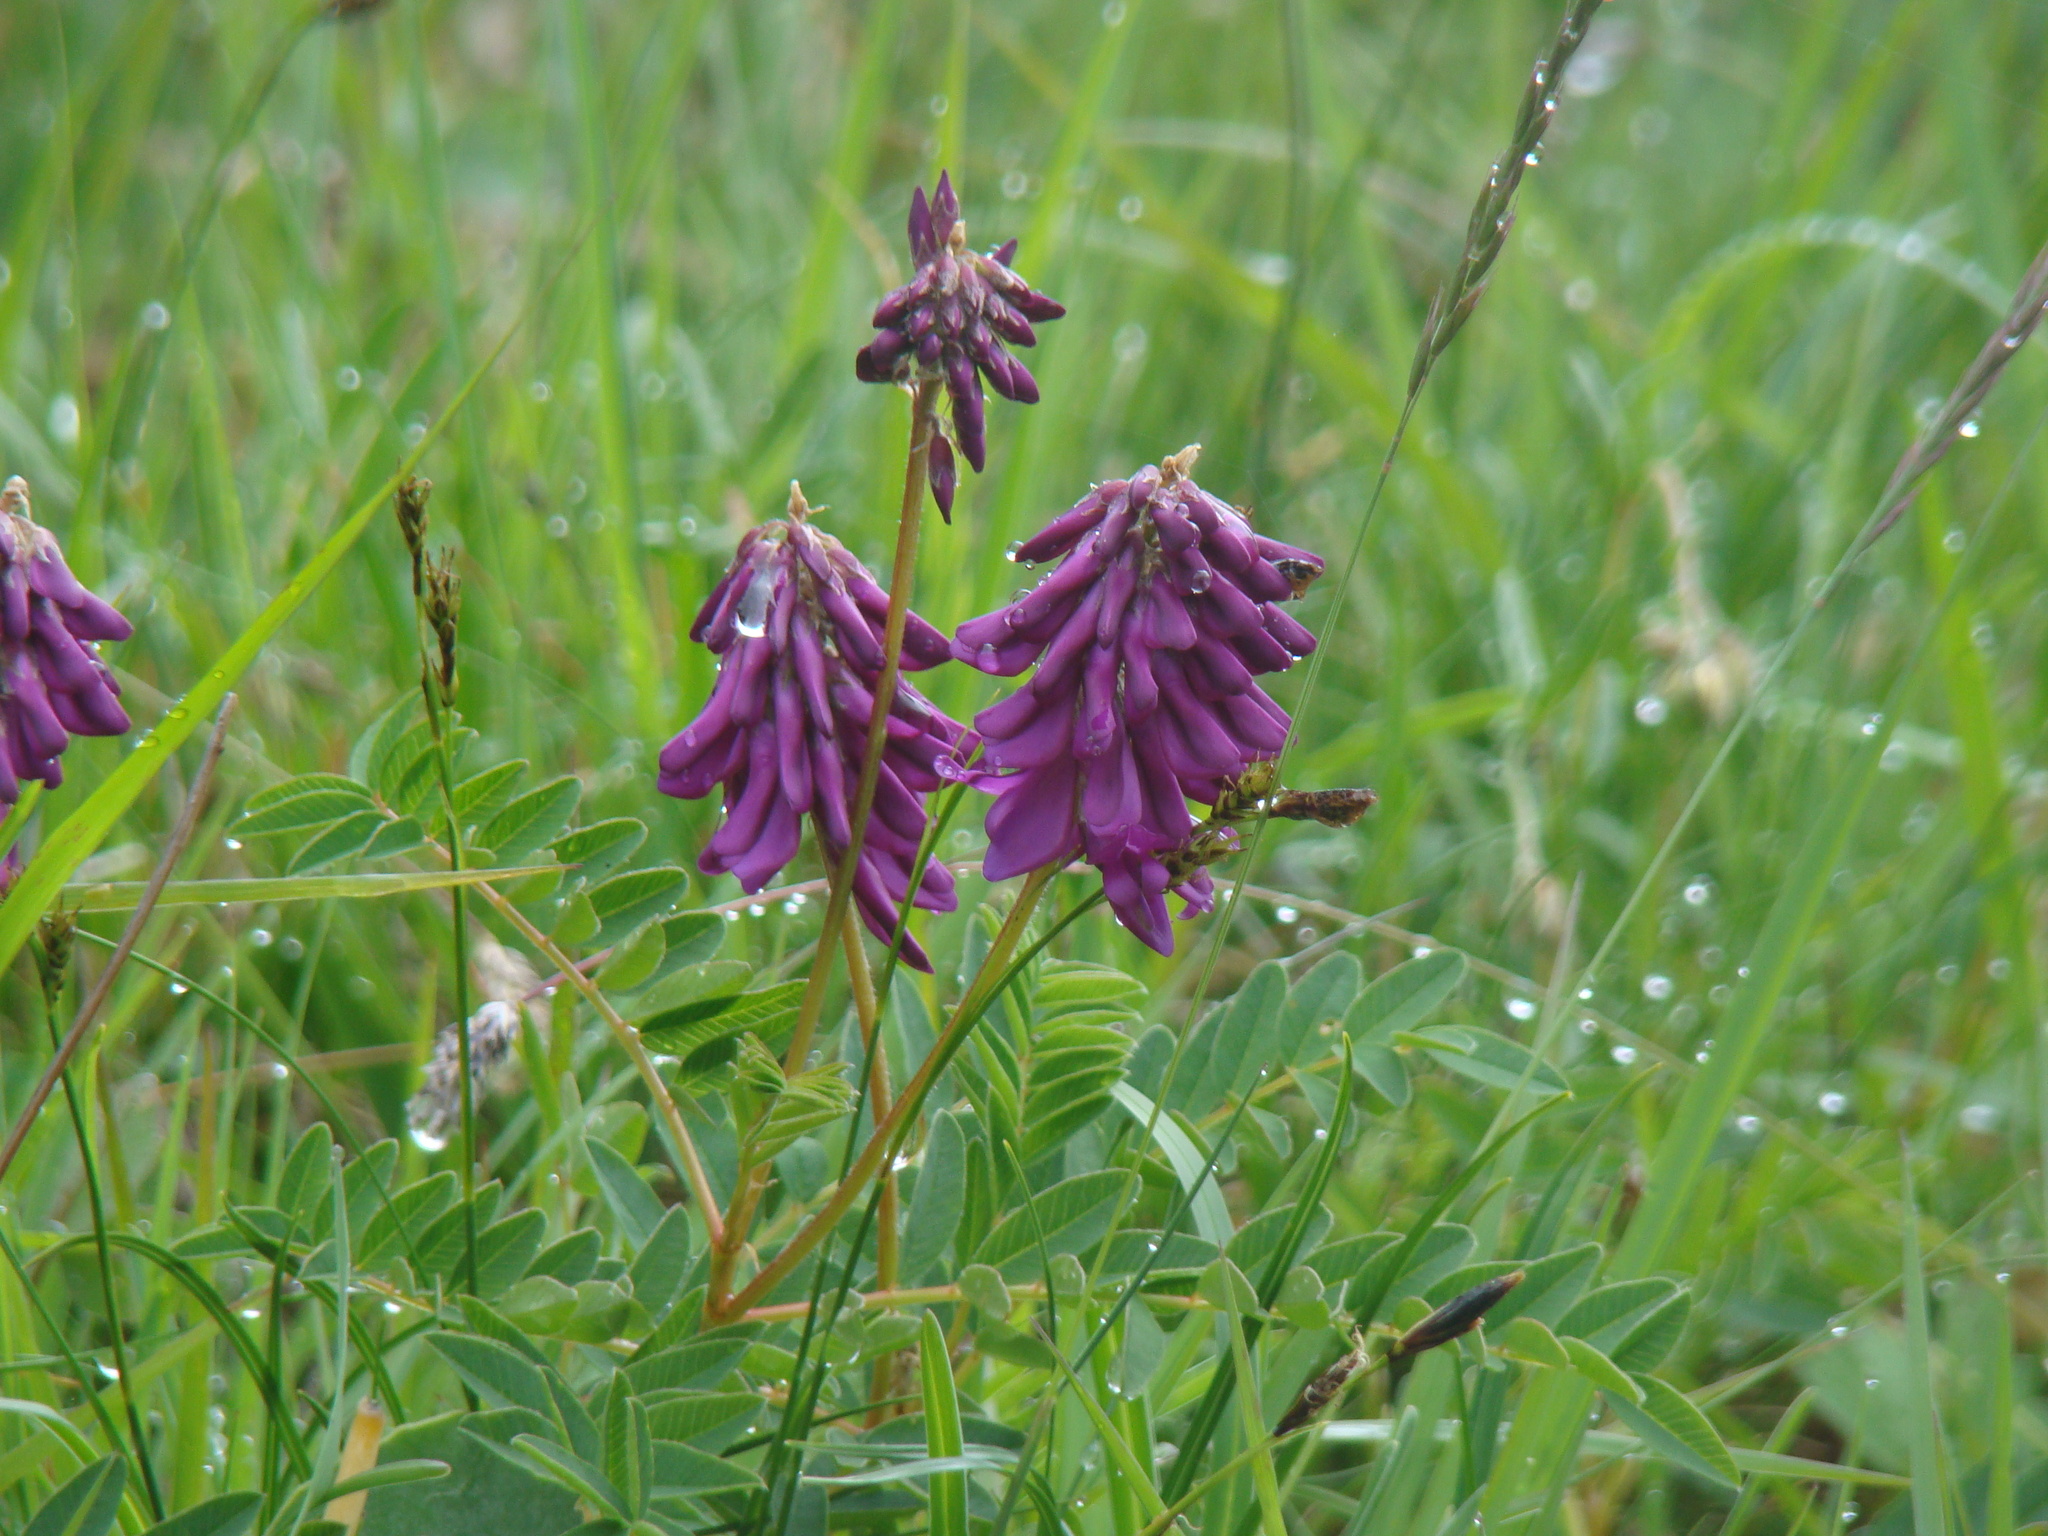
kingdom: Plantae
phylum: Tracheophyta
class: Magnoliopsida
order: Fabales
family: Fabaceae
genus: Hedysarum
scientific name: Hedysarum hedysaroides
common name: Alpine french-honeysuckle
